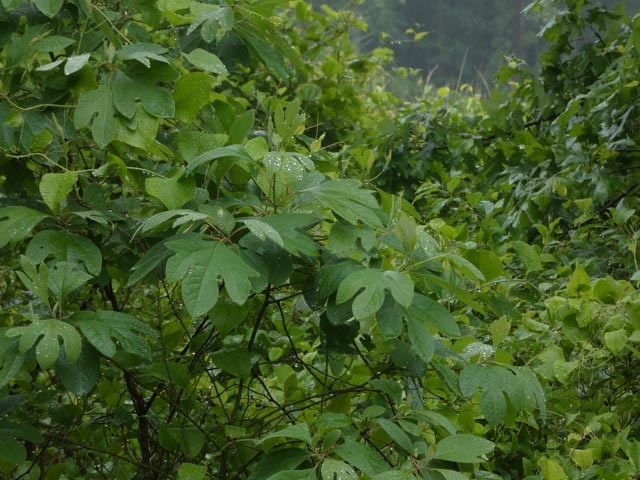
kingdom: Plantae
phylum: Tracheophyta
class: Magnoliopsida
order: Laurales
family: Lauraceae
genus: Sassafras
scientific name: Sassafras albidum
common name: Sassafras
